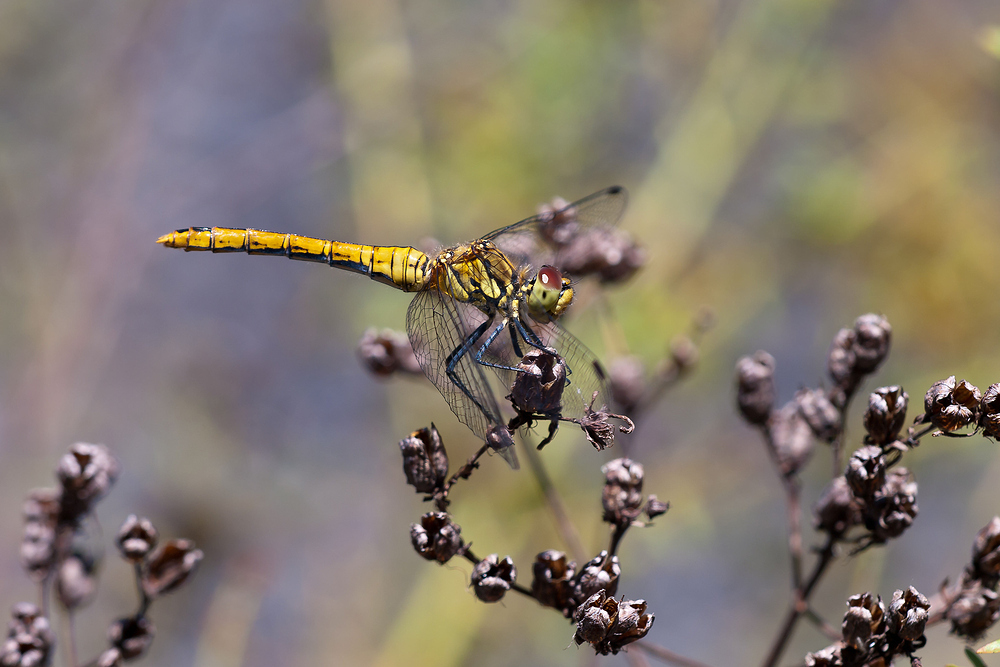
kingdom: Animalia
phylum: Arthropoda
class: Insecta
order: Odonata
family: Libellulidae
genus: Sympetrum
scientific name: Sympetrum sanguineum
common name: Ruddy darter
